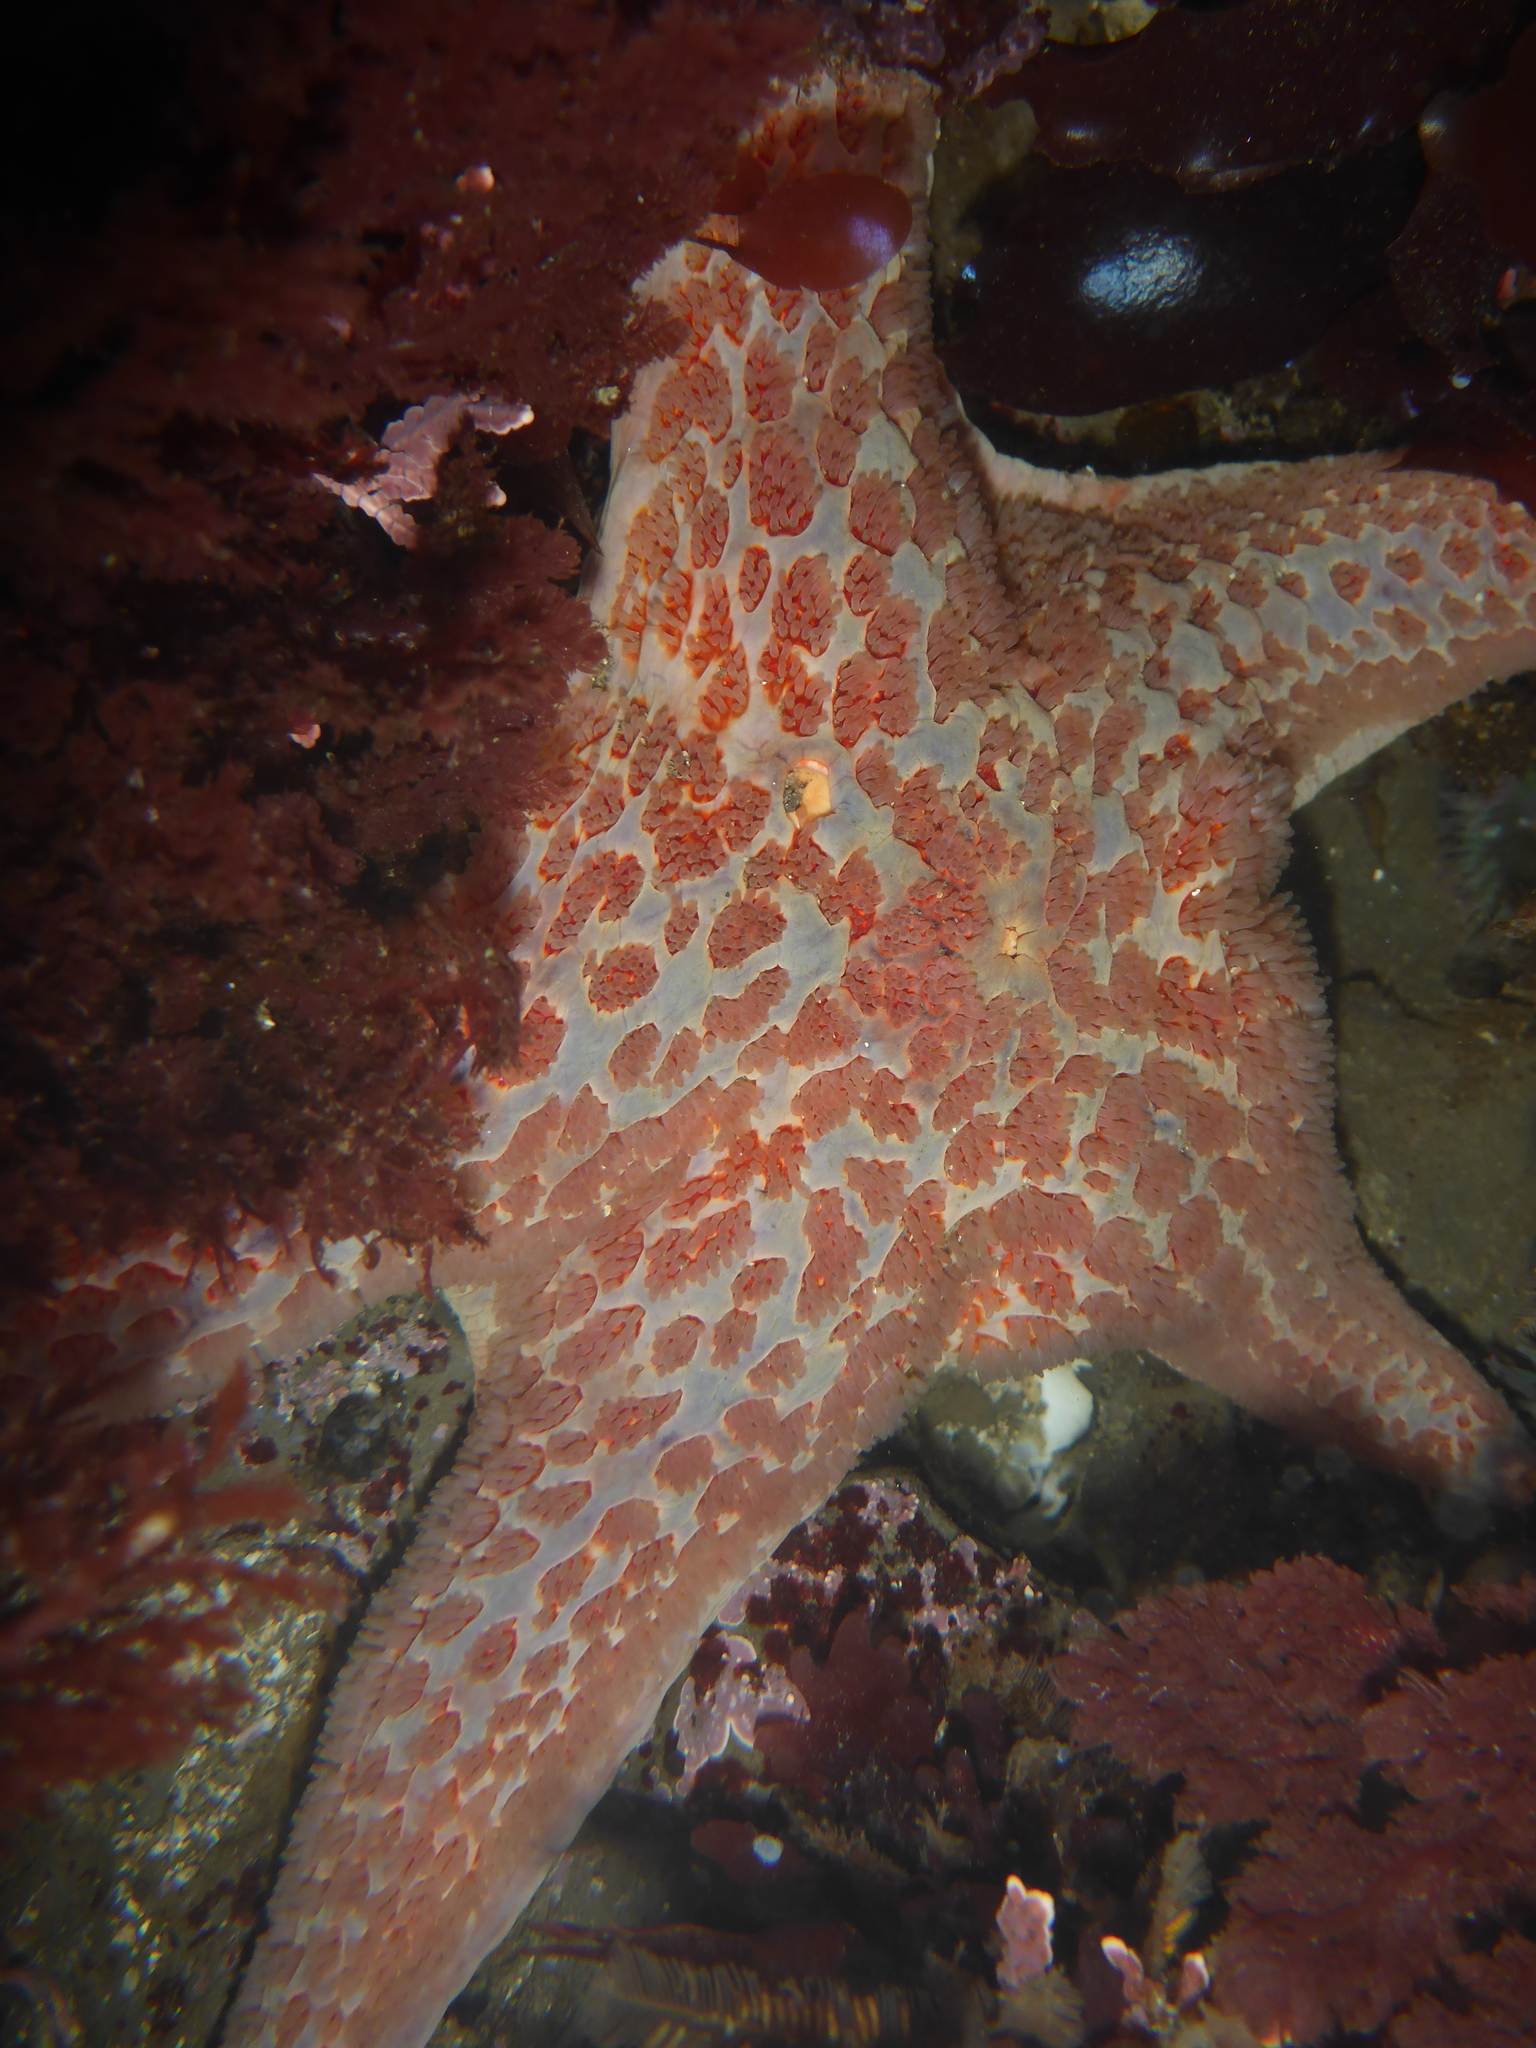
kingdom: Animalia
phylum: Echinodermata
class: Asteroidea
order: Valvatida
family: Asteropseidae
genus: Dermasterias
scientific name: Dermasterias imbricata
